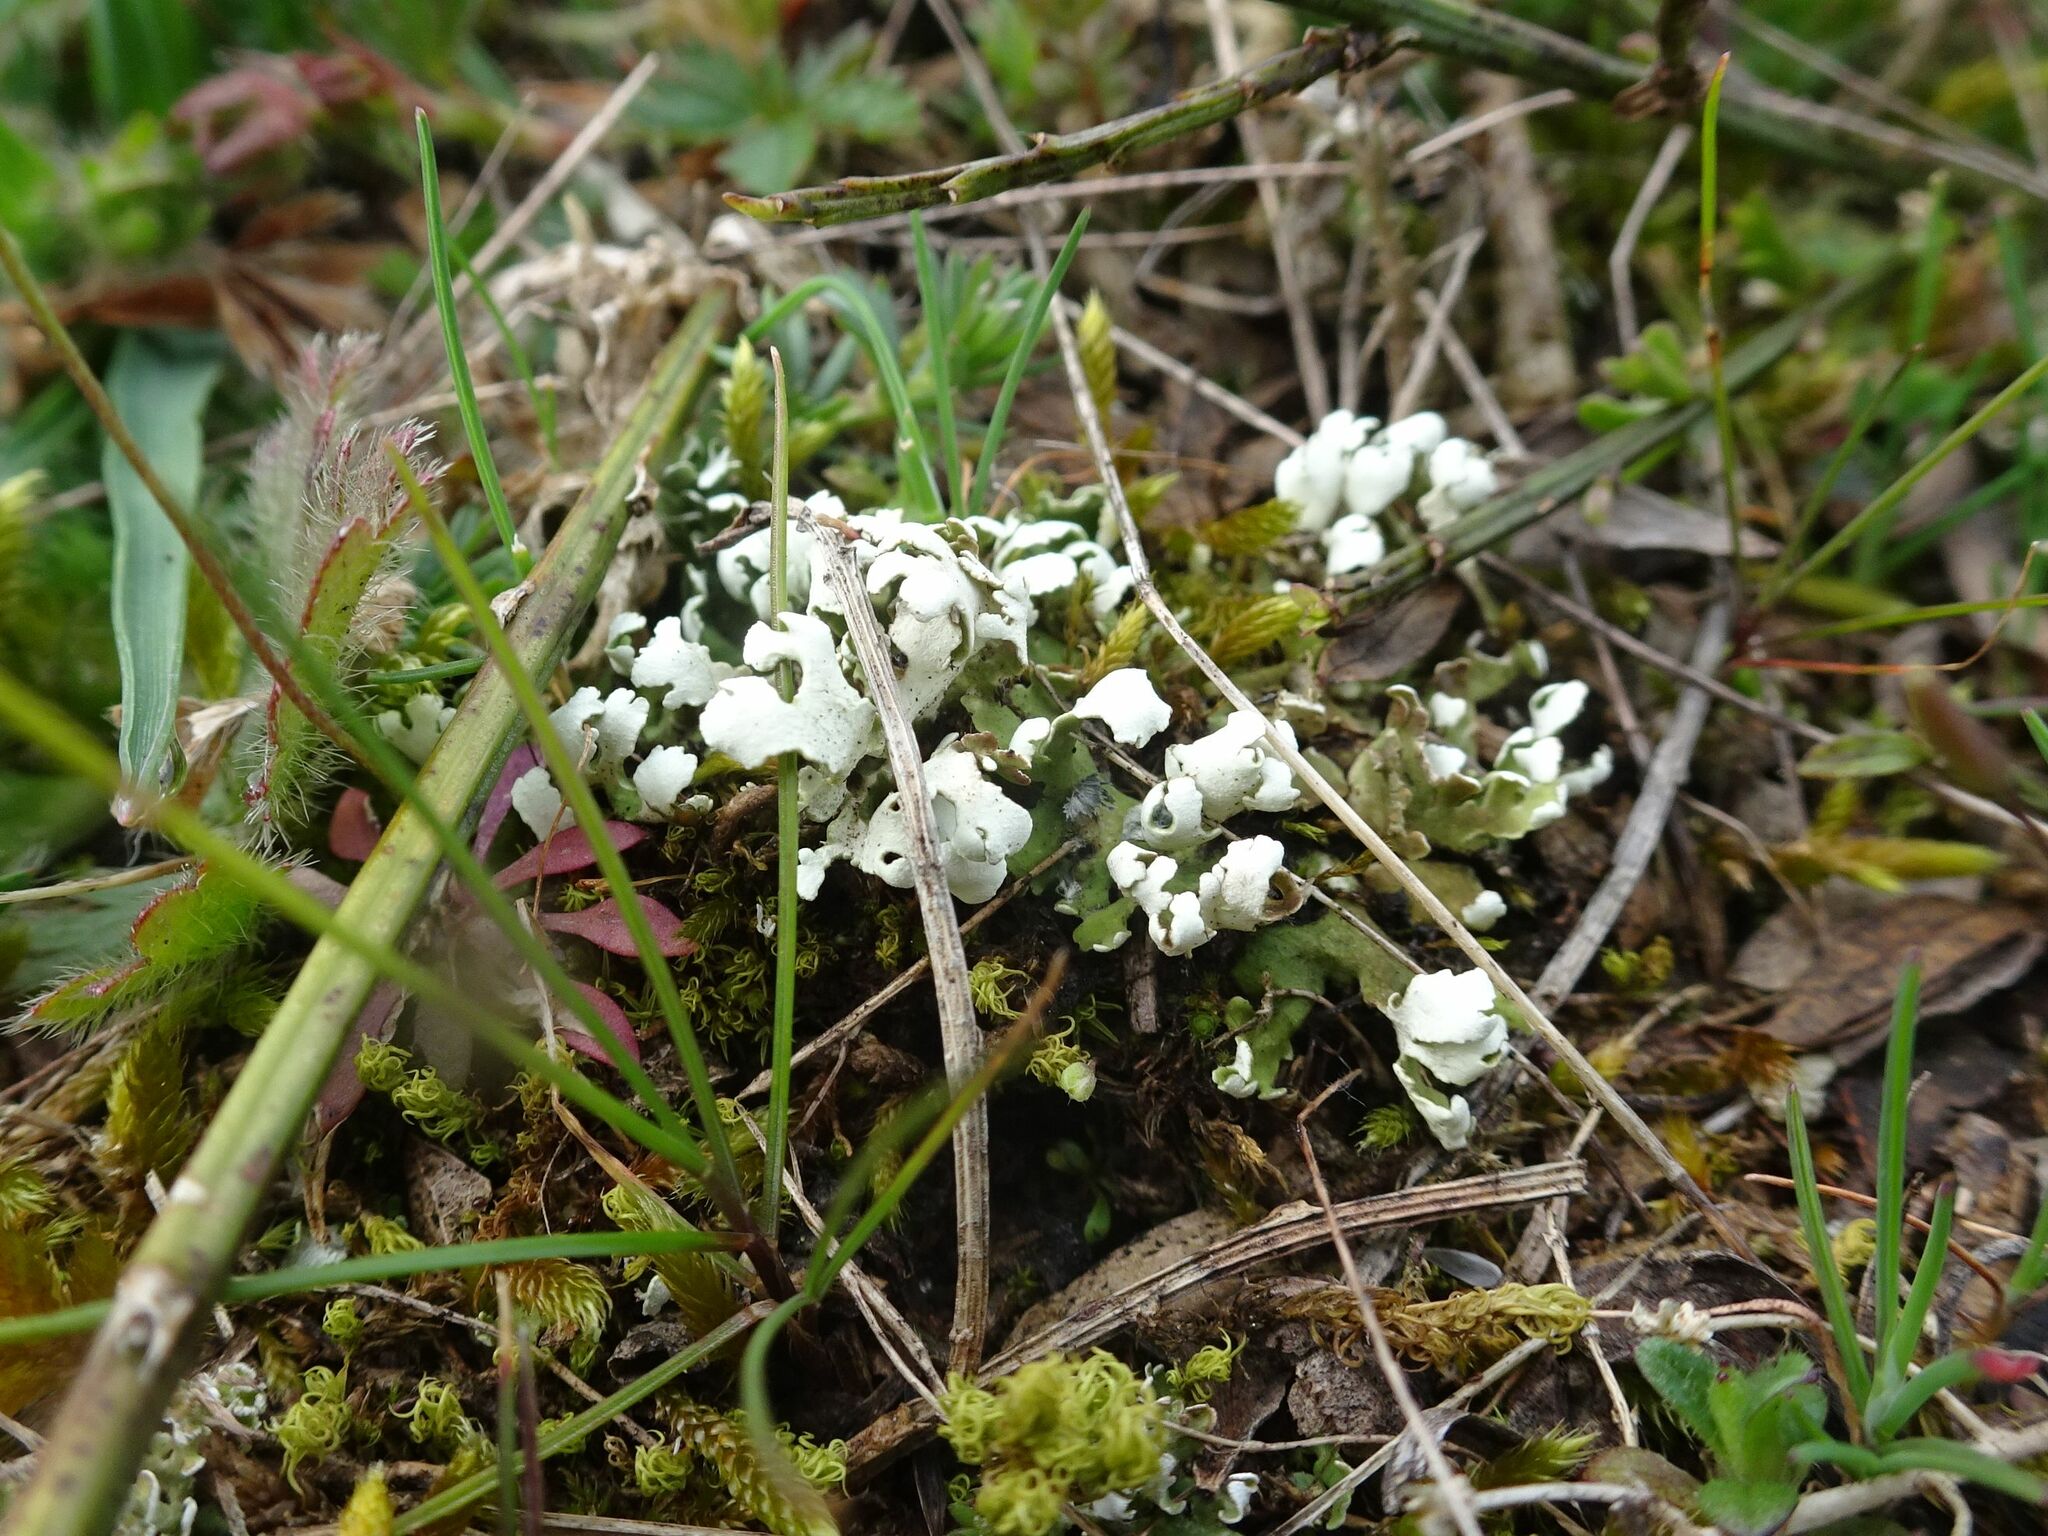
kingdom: Fungi
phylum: Ascomycota
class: Lecanoromycetes
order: Lecanorales
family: Cladoniaceae
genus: Cladonia
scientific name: Cladonia foliacea
